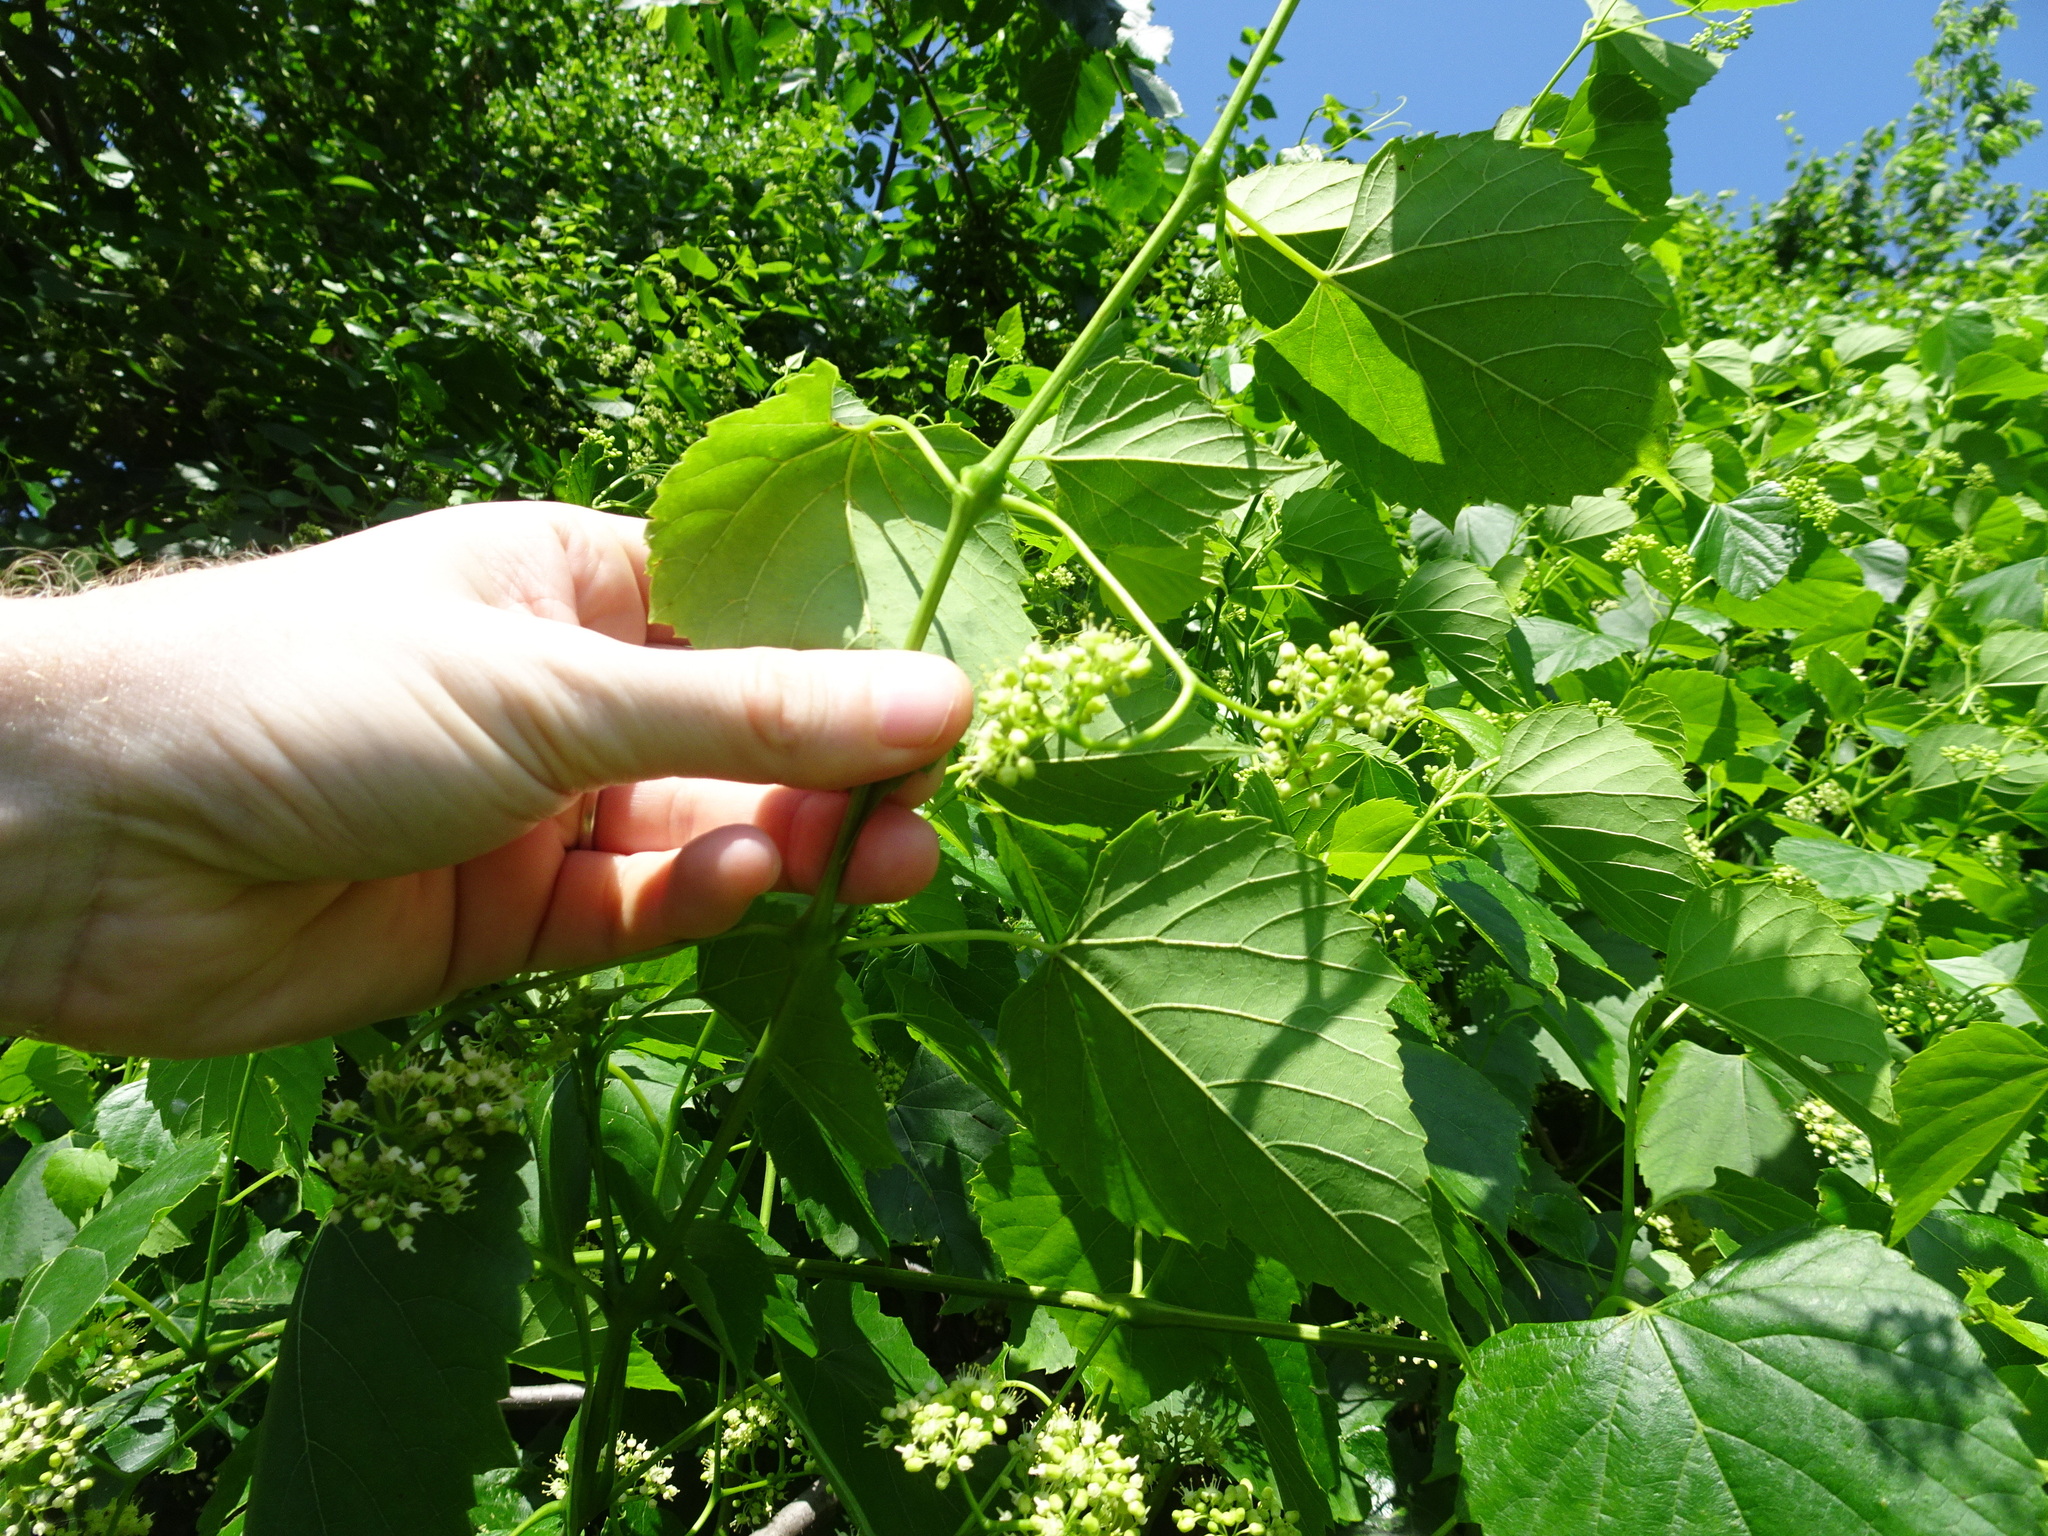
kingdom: Plantae
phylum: Tracheophyta
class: Magnoliopsida
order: Vitales
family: Vitaceae
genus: Ampelopsis
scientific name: Ampelopsis cordata
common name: Heart-leaf ampelopsis
